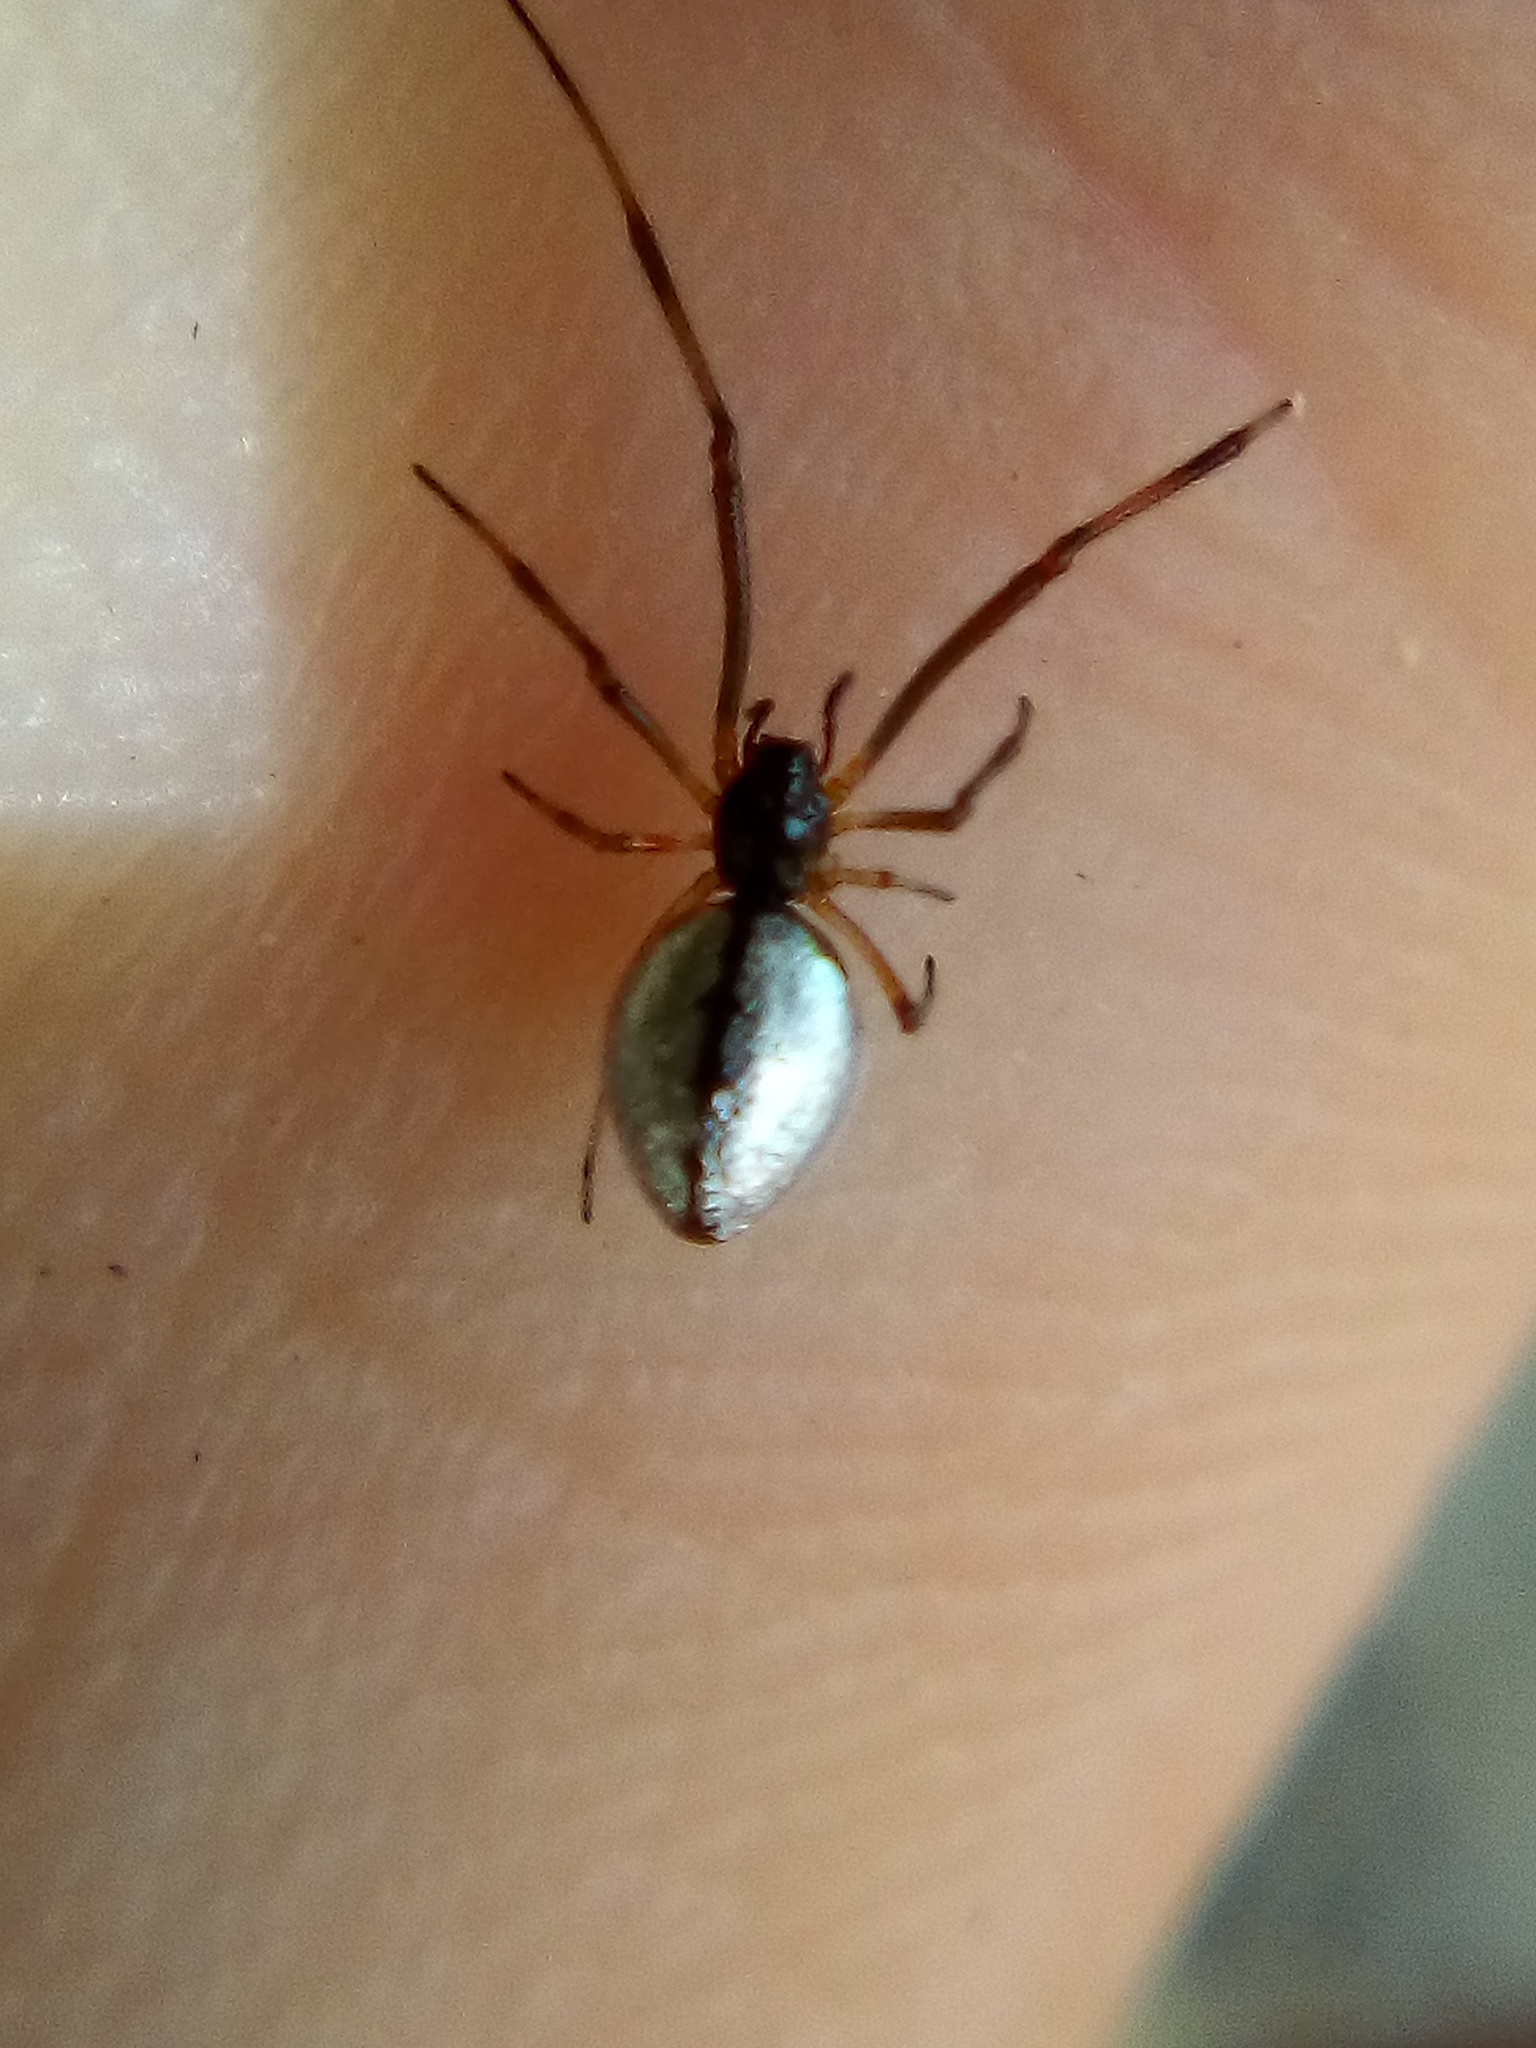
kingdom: Animalia
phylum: Arthropoda
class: Arachnida
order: Araneae
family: Theridiidae
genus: Argyrodes
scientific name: Argyrodes antipodianus
